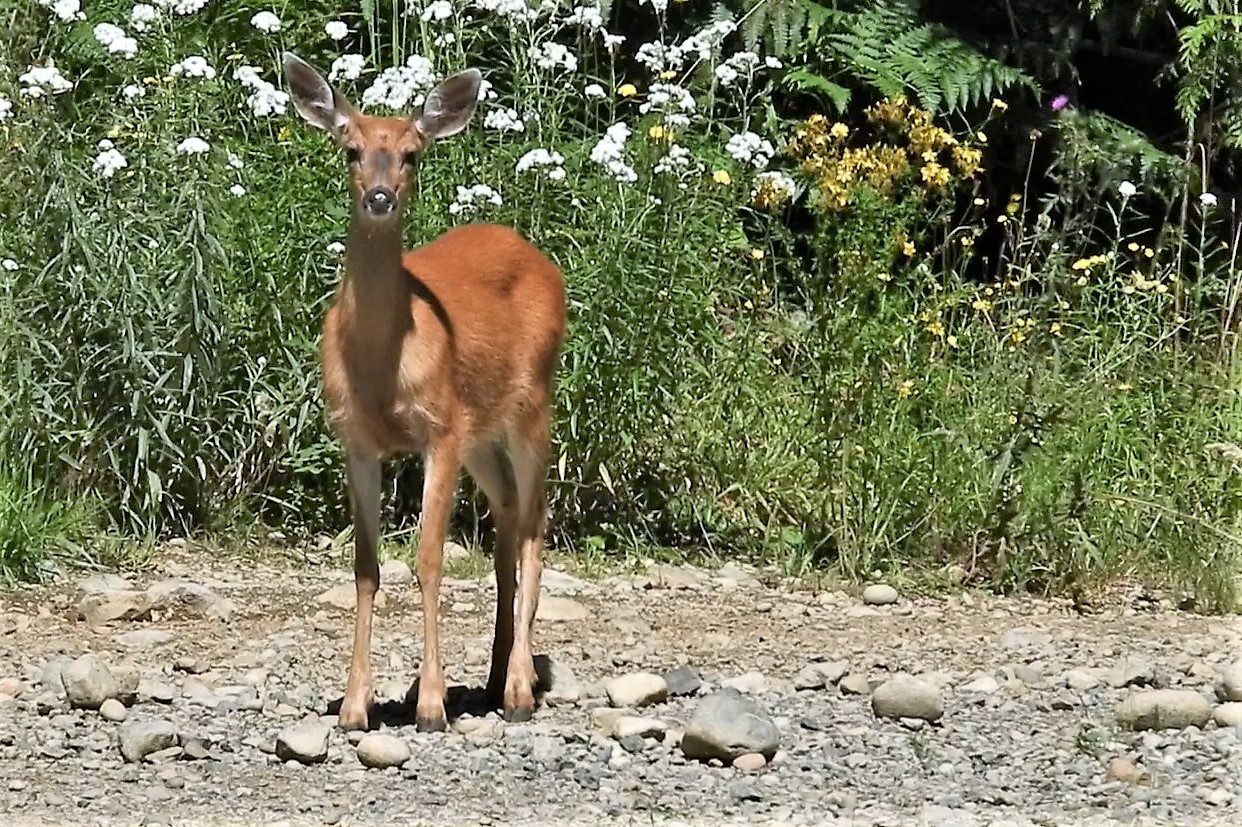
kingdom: Animalia
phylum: Chordata
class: Mammalia
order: Artiodactyla
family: Cervidae
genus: Odocoileus
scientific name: Odocoileus hemionus
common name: Mule deer
